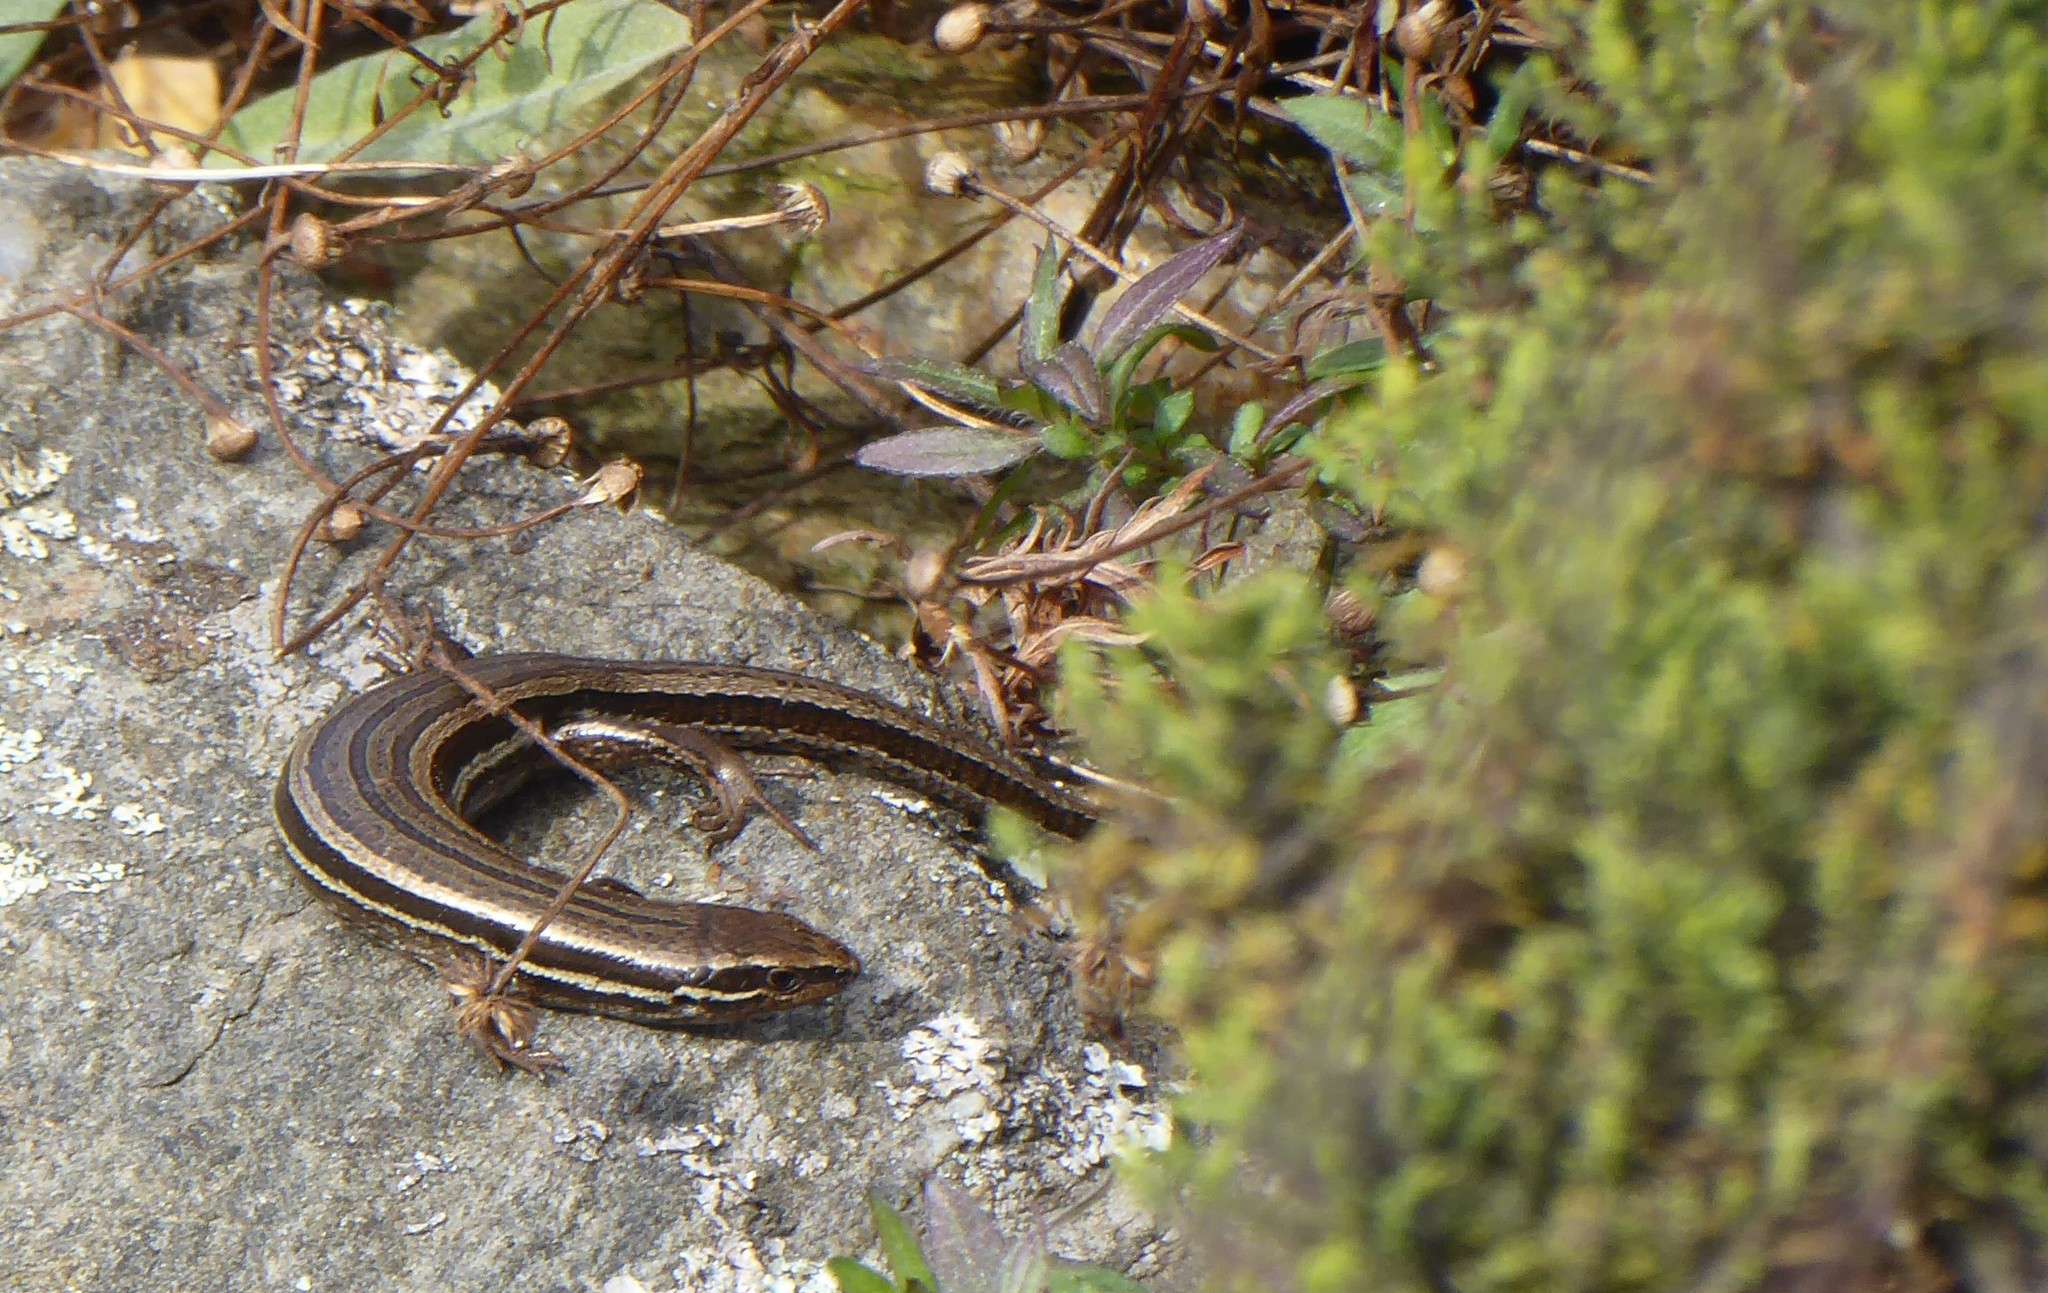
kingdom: Animalia
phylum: Chordata
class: Squamata
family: Scincidae
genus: Oligosoma
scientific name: Oligosoma polychroma
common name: Common new zealand skink
